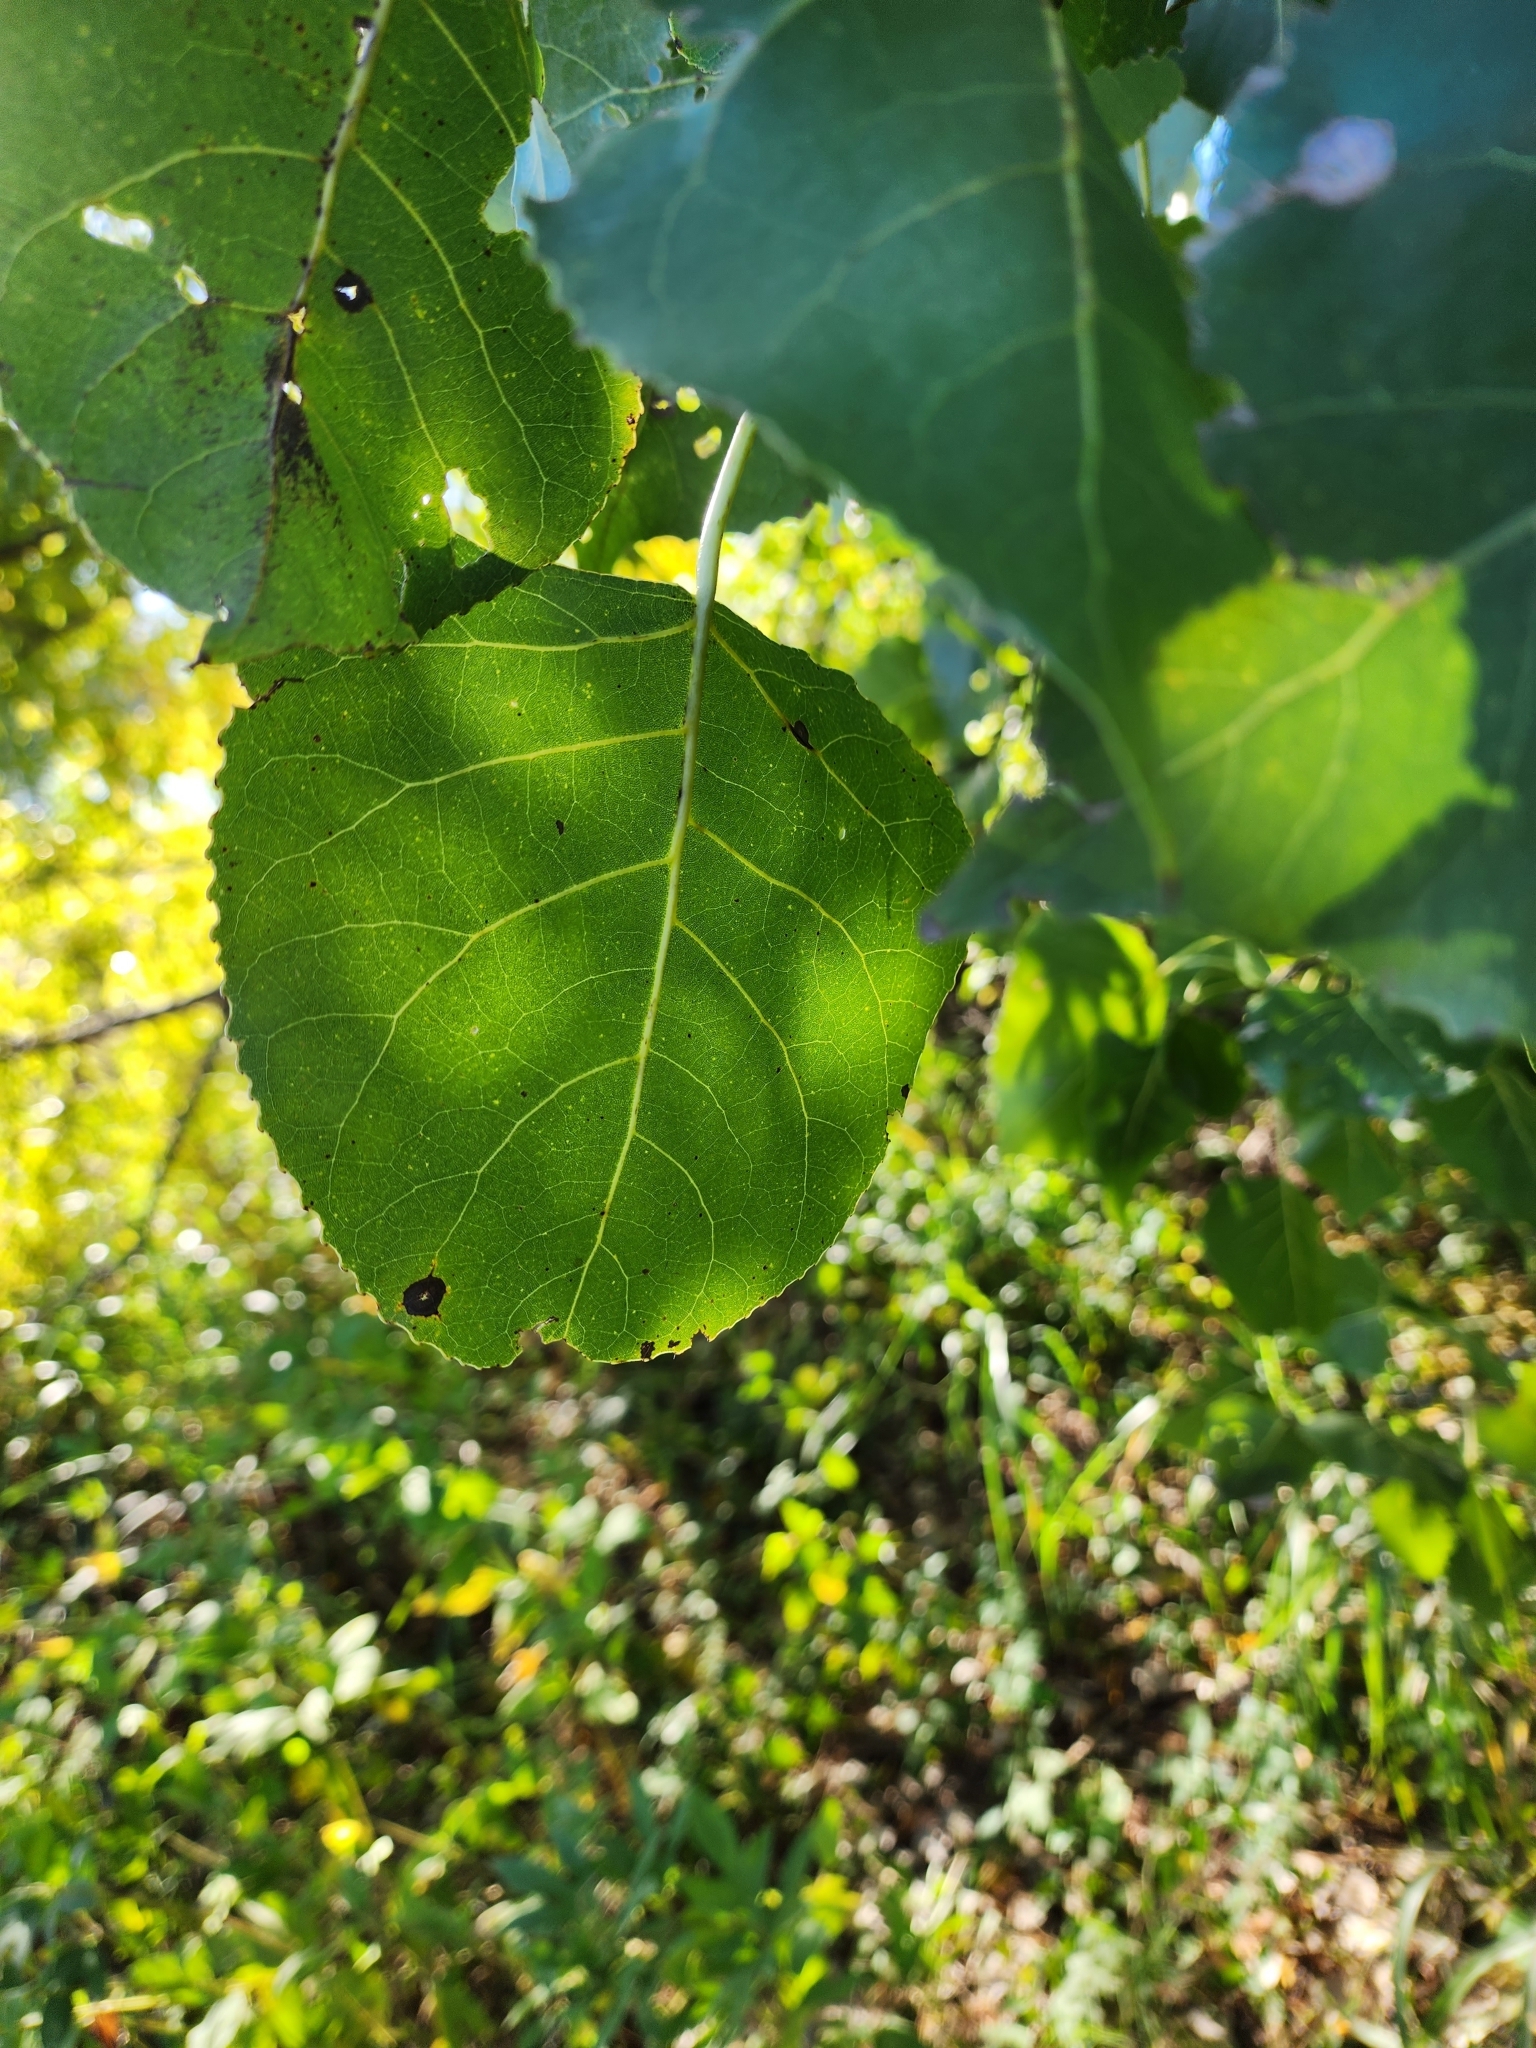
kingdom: Plantae
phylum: Tracheophyta
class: Magnoliopsida
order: Malpighiales
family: Salicaceae
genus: Populus
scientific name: Populus deltoides
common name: Eastern cottonwood
